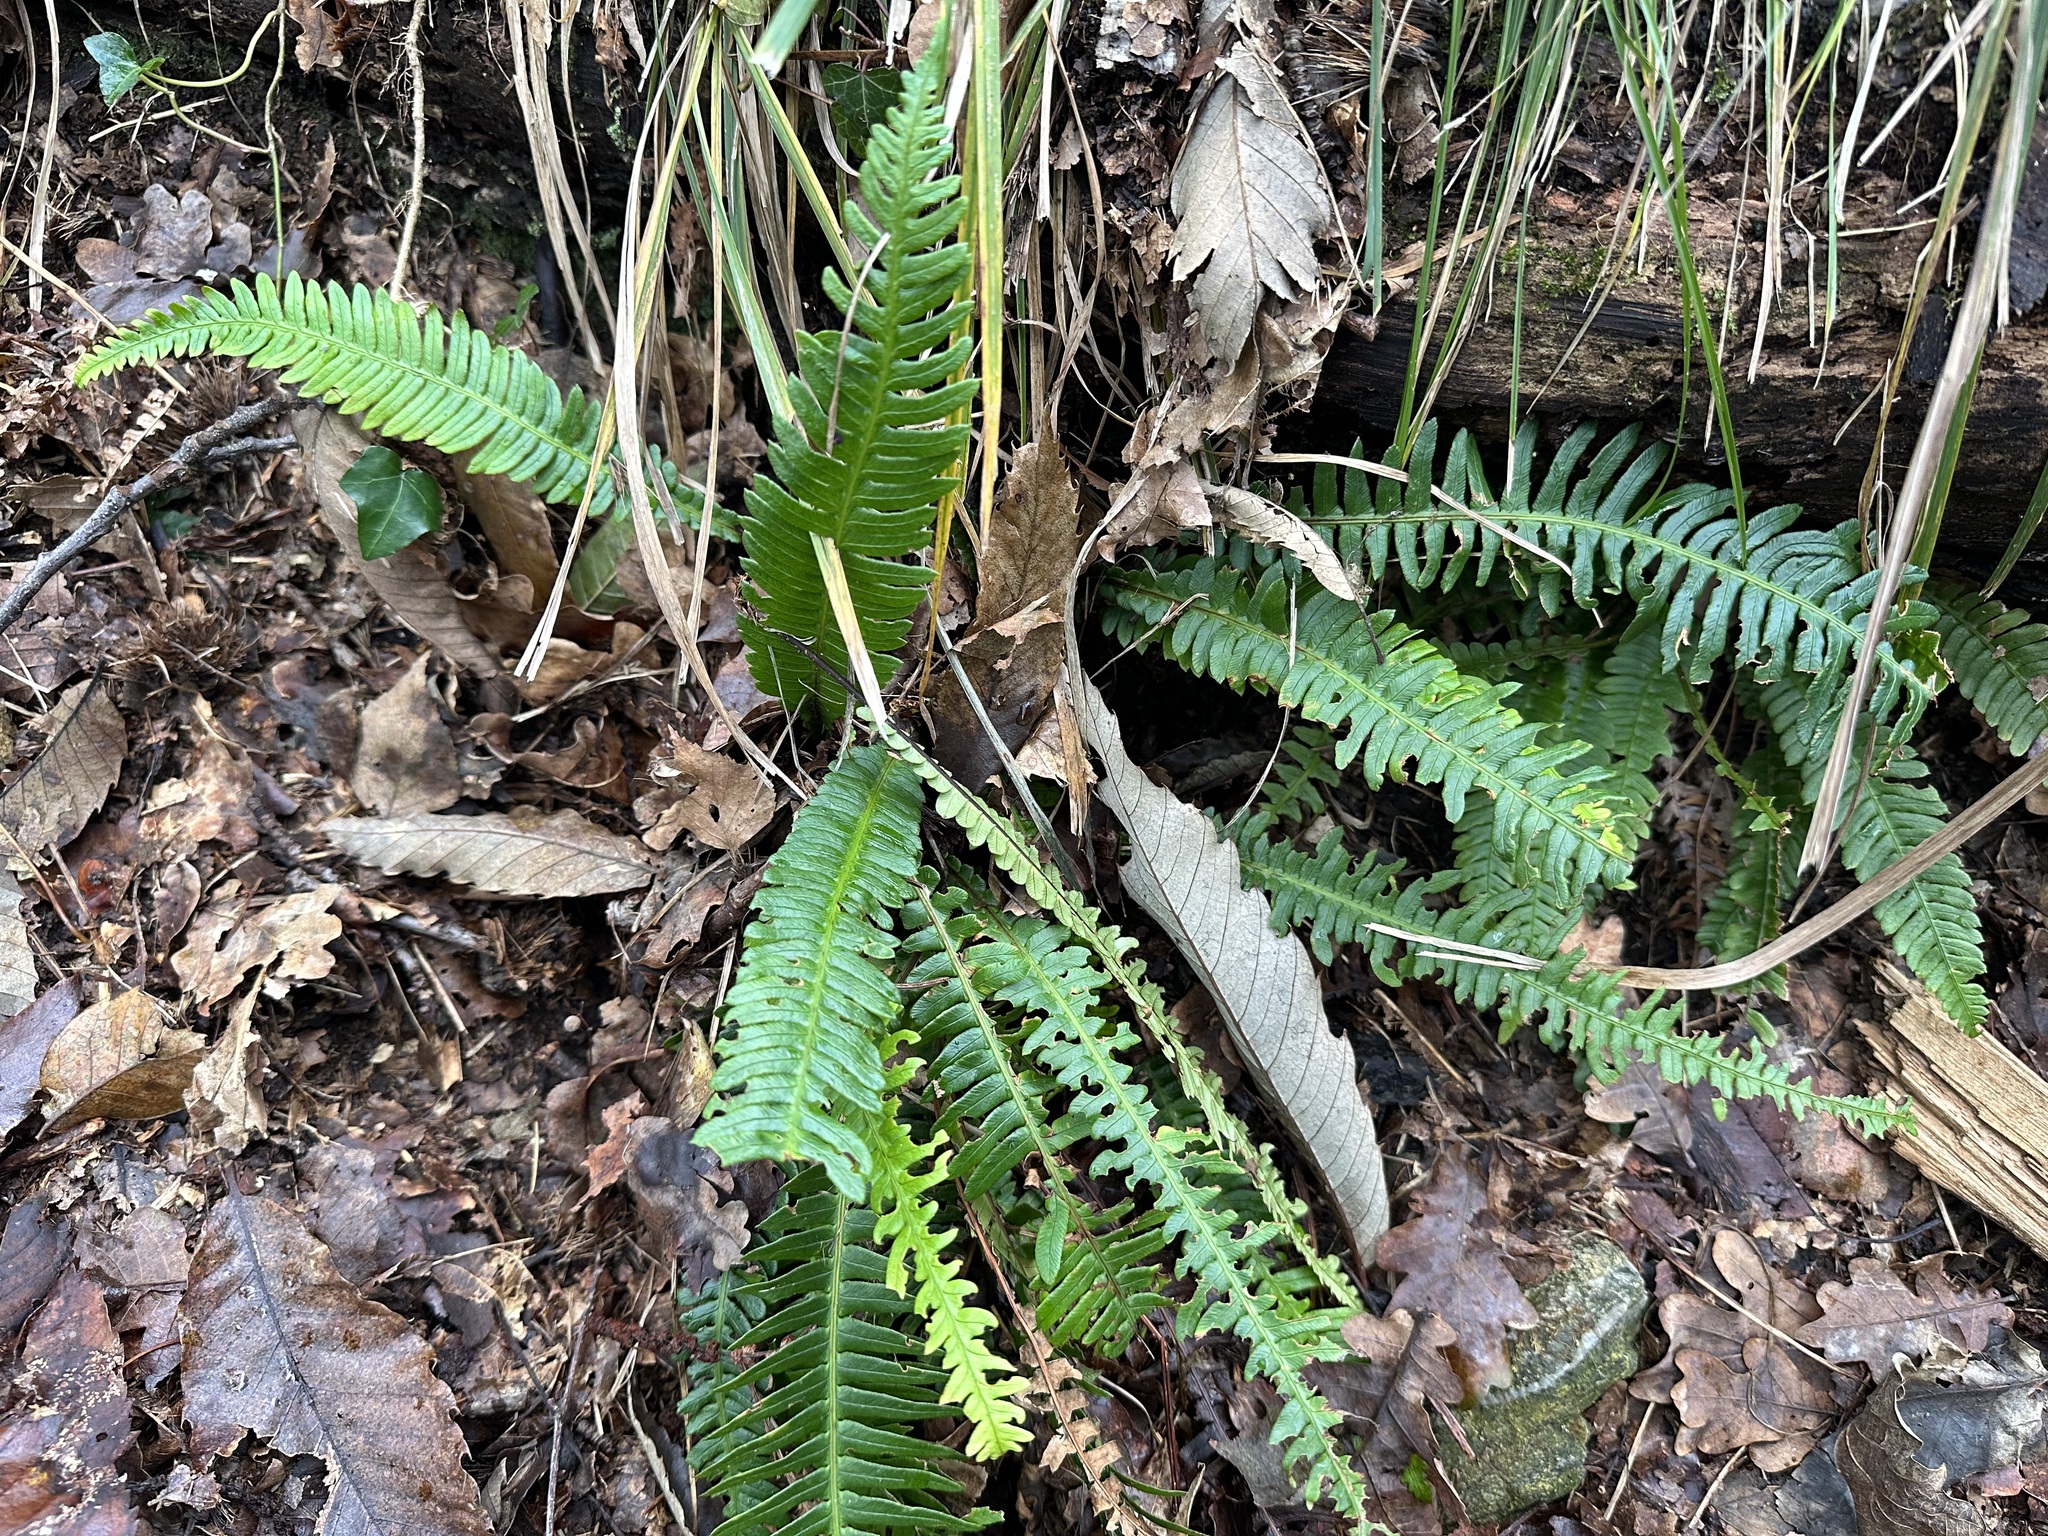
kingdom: Plantae
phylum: Tracheophyta
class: Polypodiopsida
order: Polypodiales
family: Blechnaceae
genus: Struthiopteris
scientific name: Struthiopteris spicant
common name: Deer fern
